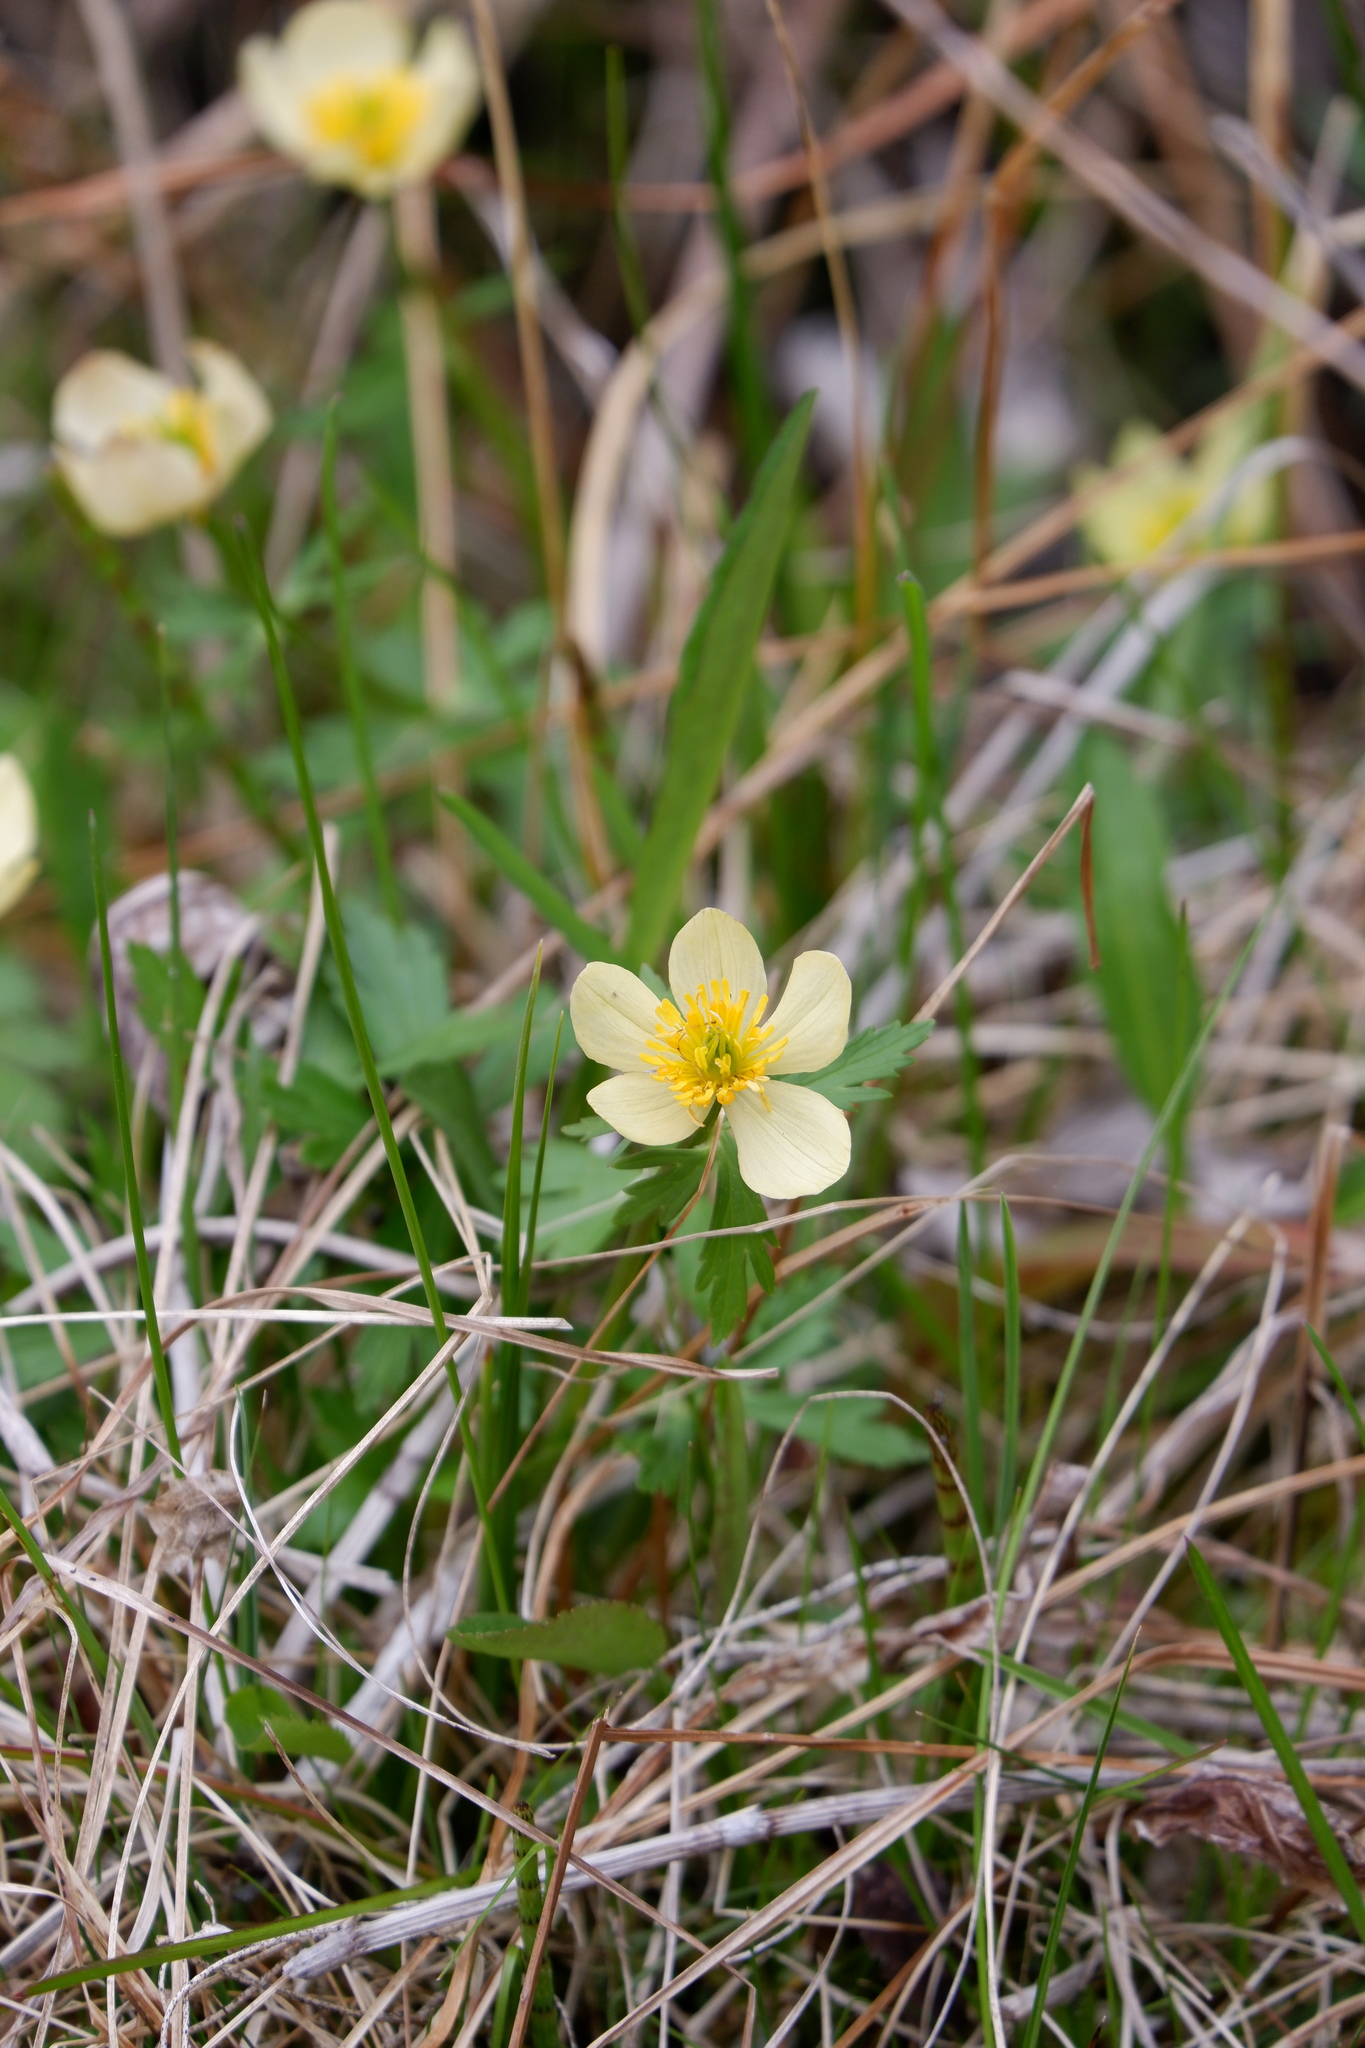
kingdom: Plantae
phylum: Tracheophyta
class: Magnoliopsida
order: Ranunculales
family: Ranunculaceae
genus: Trollius
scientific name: Trollius laxus
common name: American globeflower
